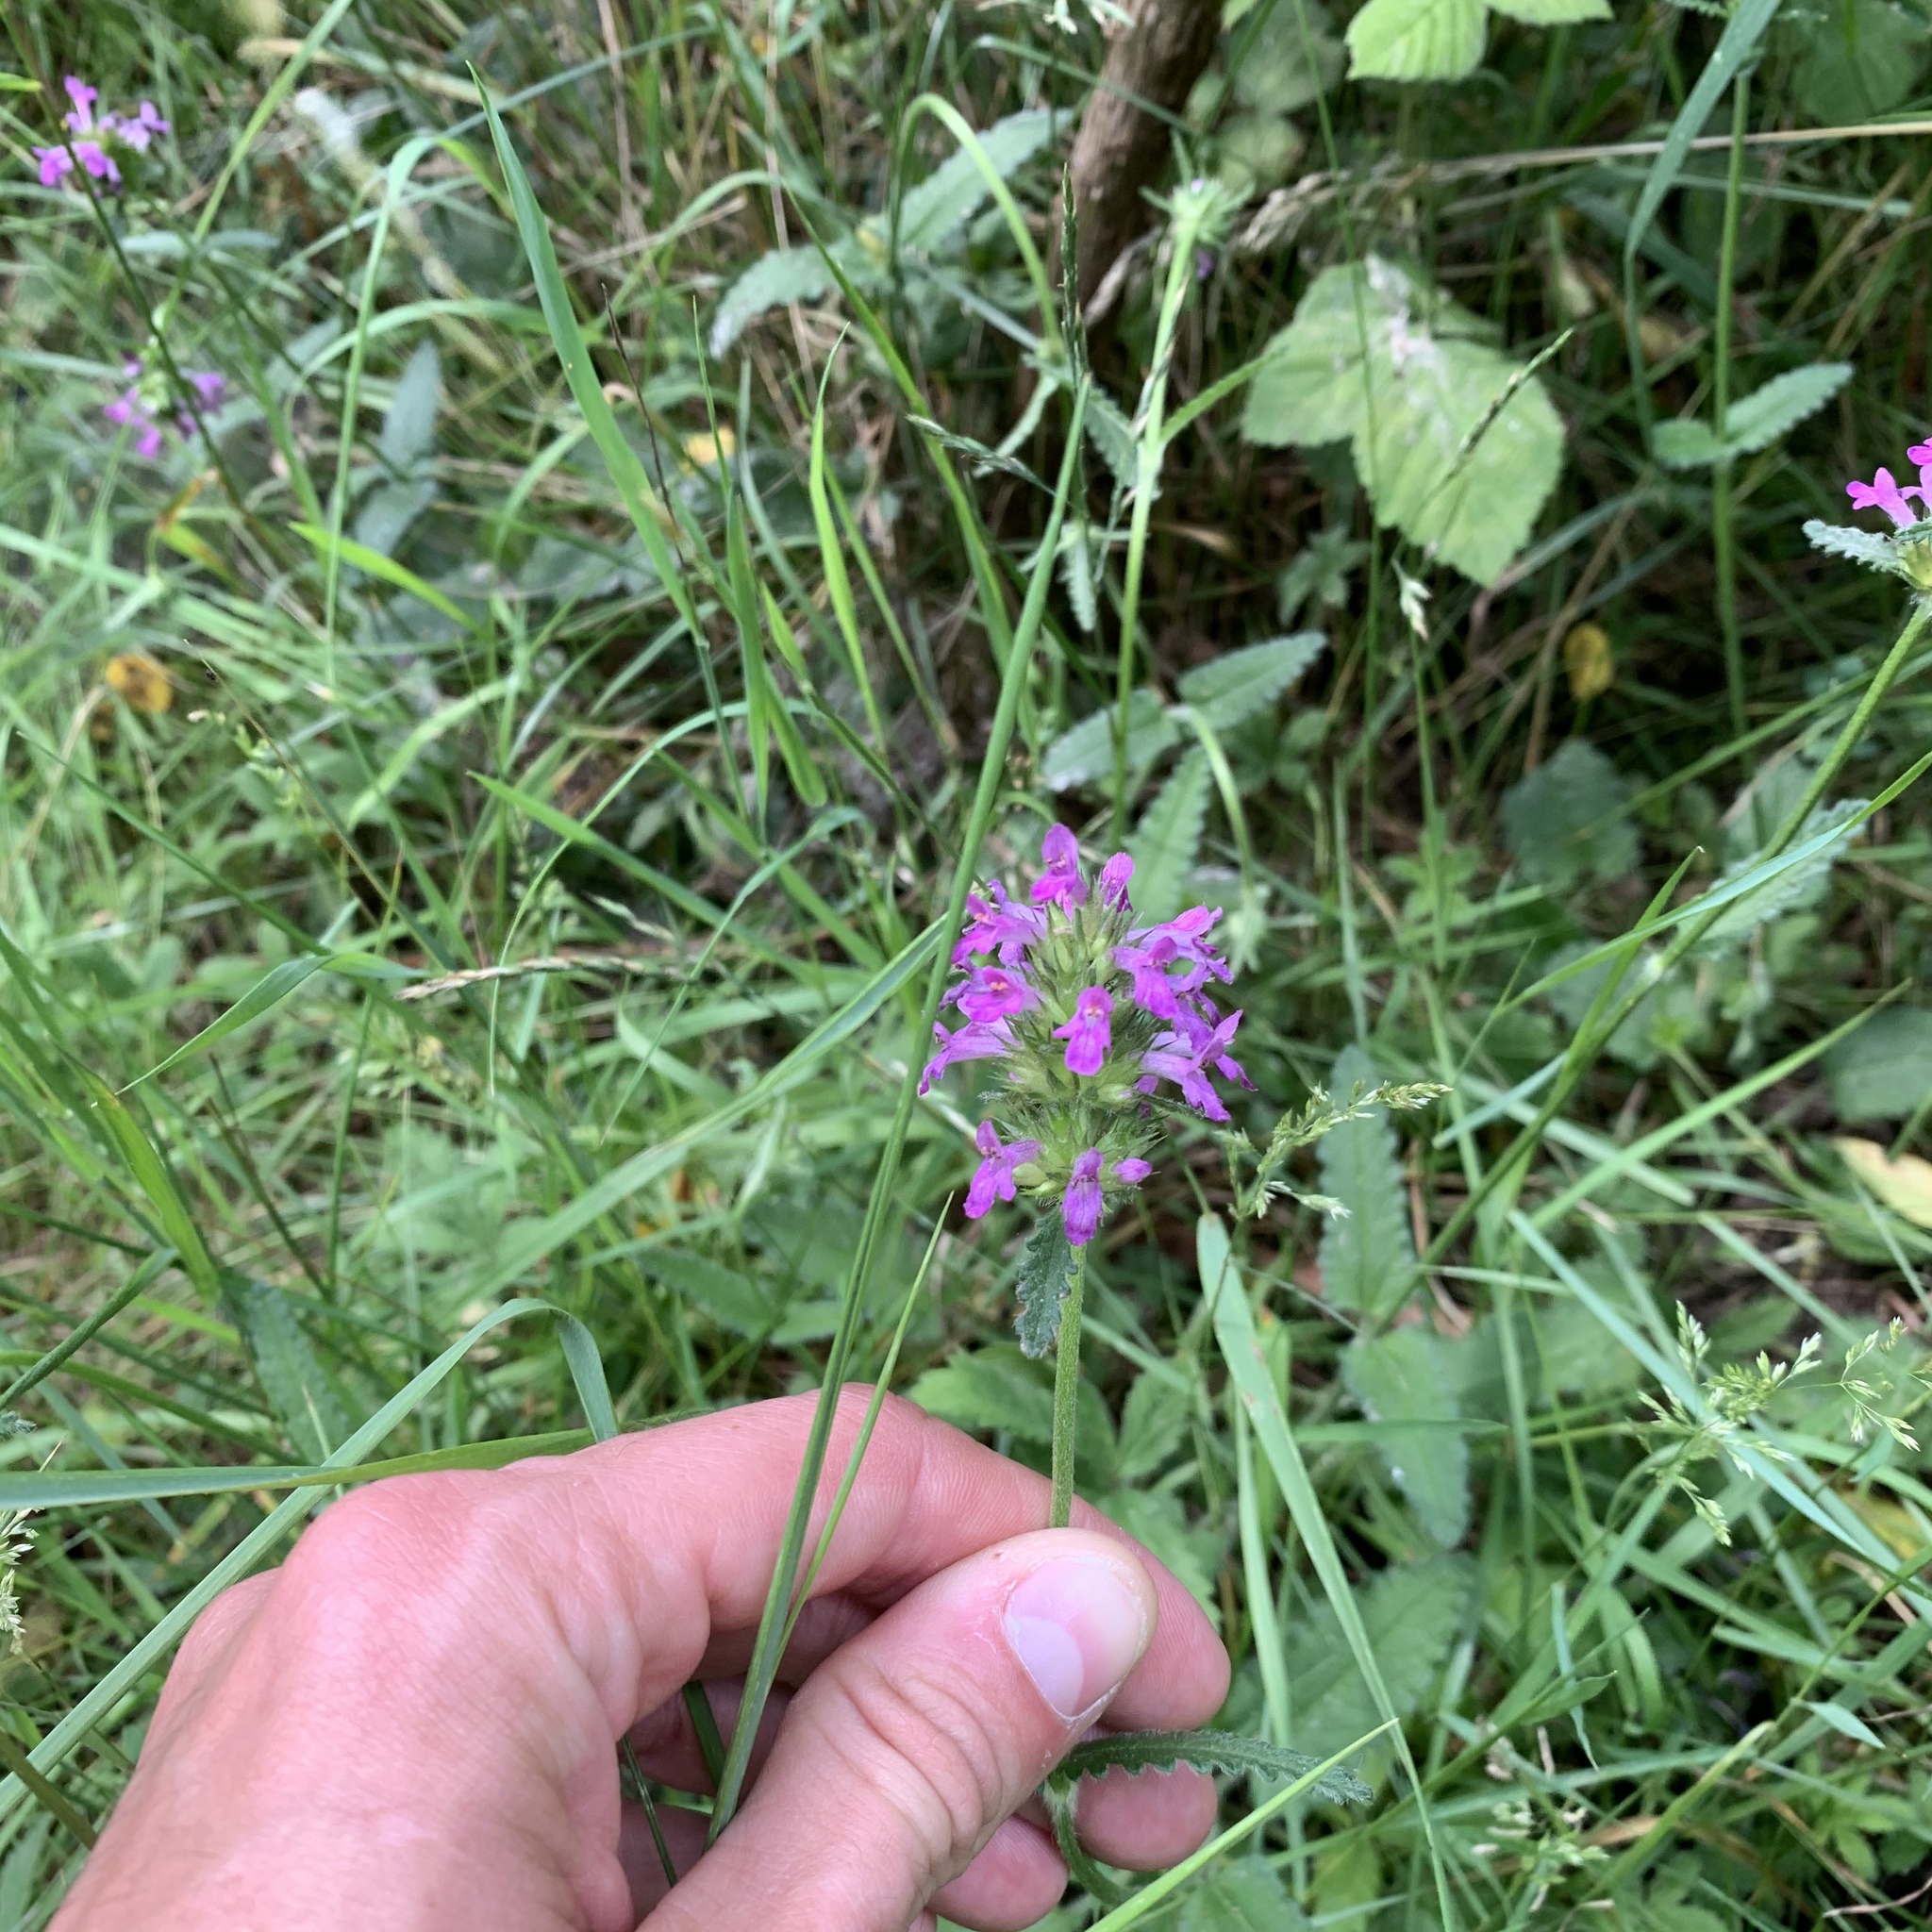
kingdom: Plantae
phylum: Tracheophyta
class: Magnoliopsida
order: Lamiales
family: Lamiaceae
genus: Betonica
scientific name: Betonica officinalis
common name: Bishop's-wort
